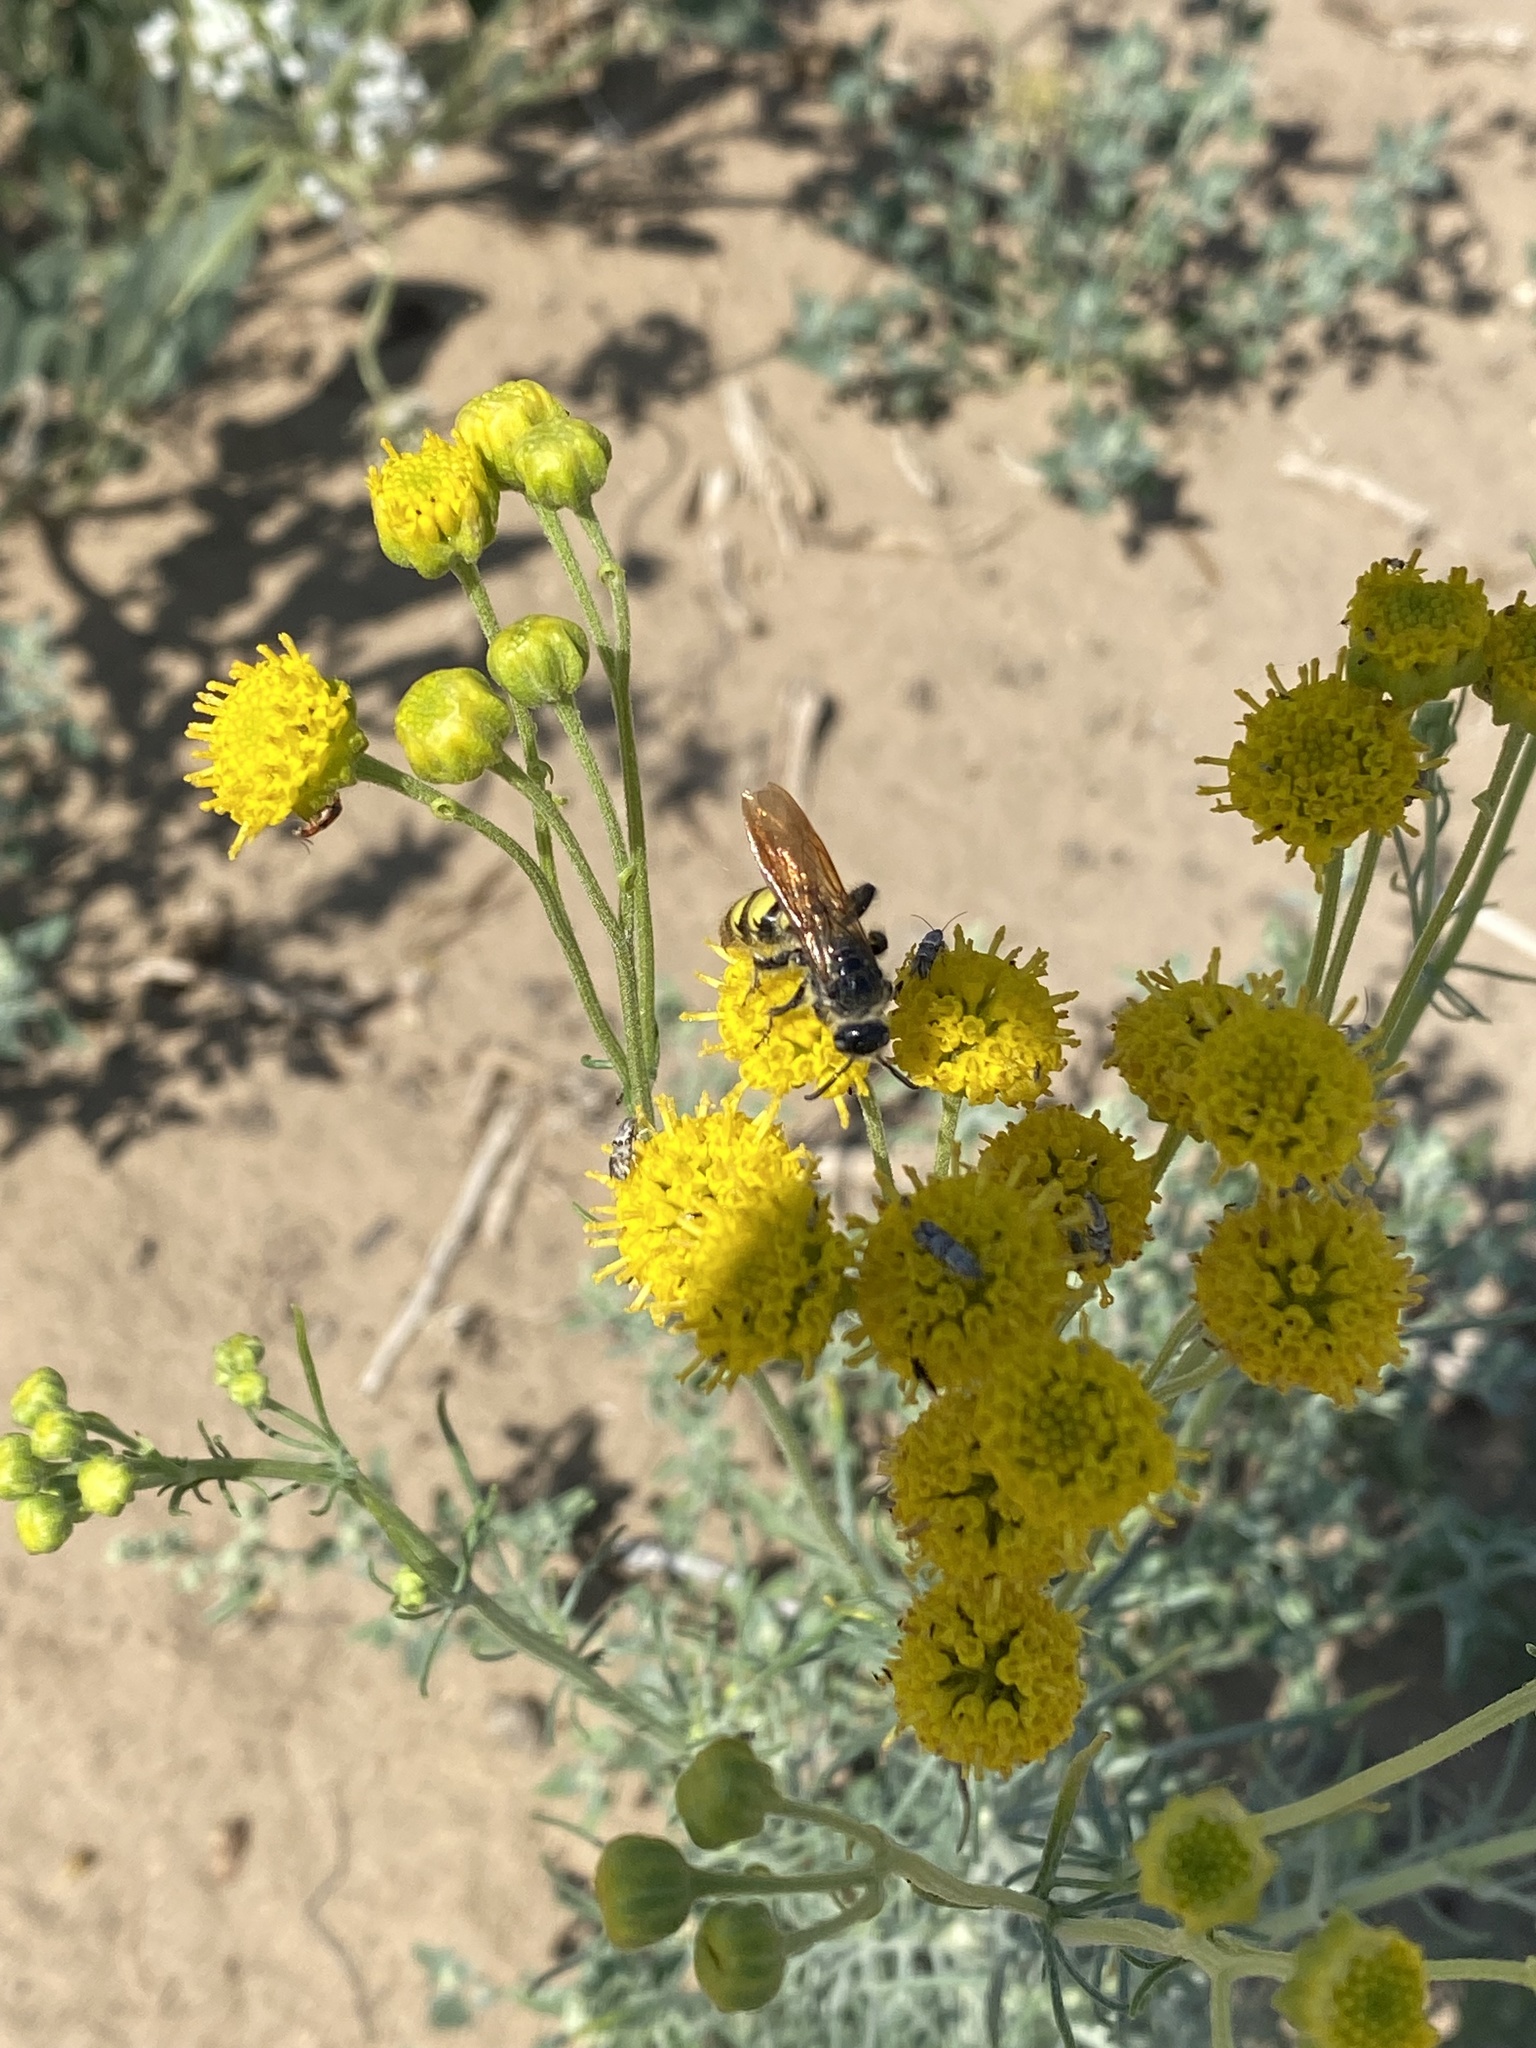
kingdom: Animalia
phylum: Arthropoda
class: Insecta
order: Hymenoptera
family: Scoliidae
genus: Dielis
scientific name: Dielis
